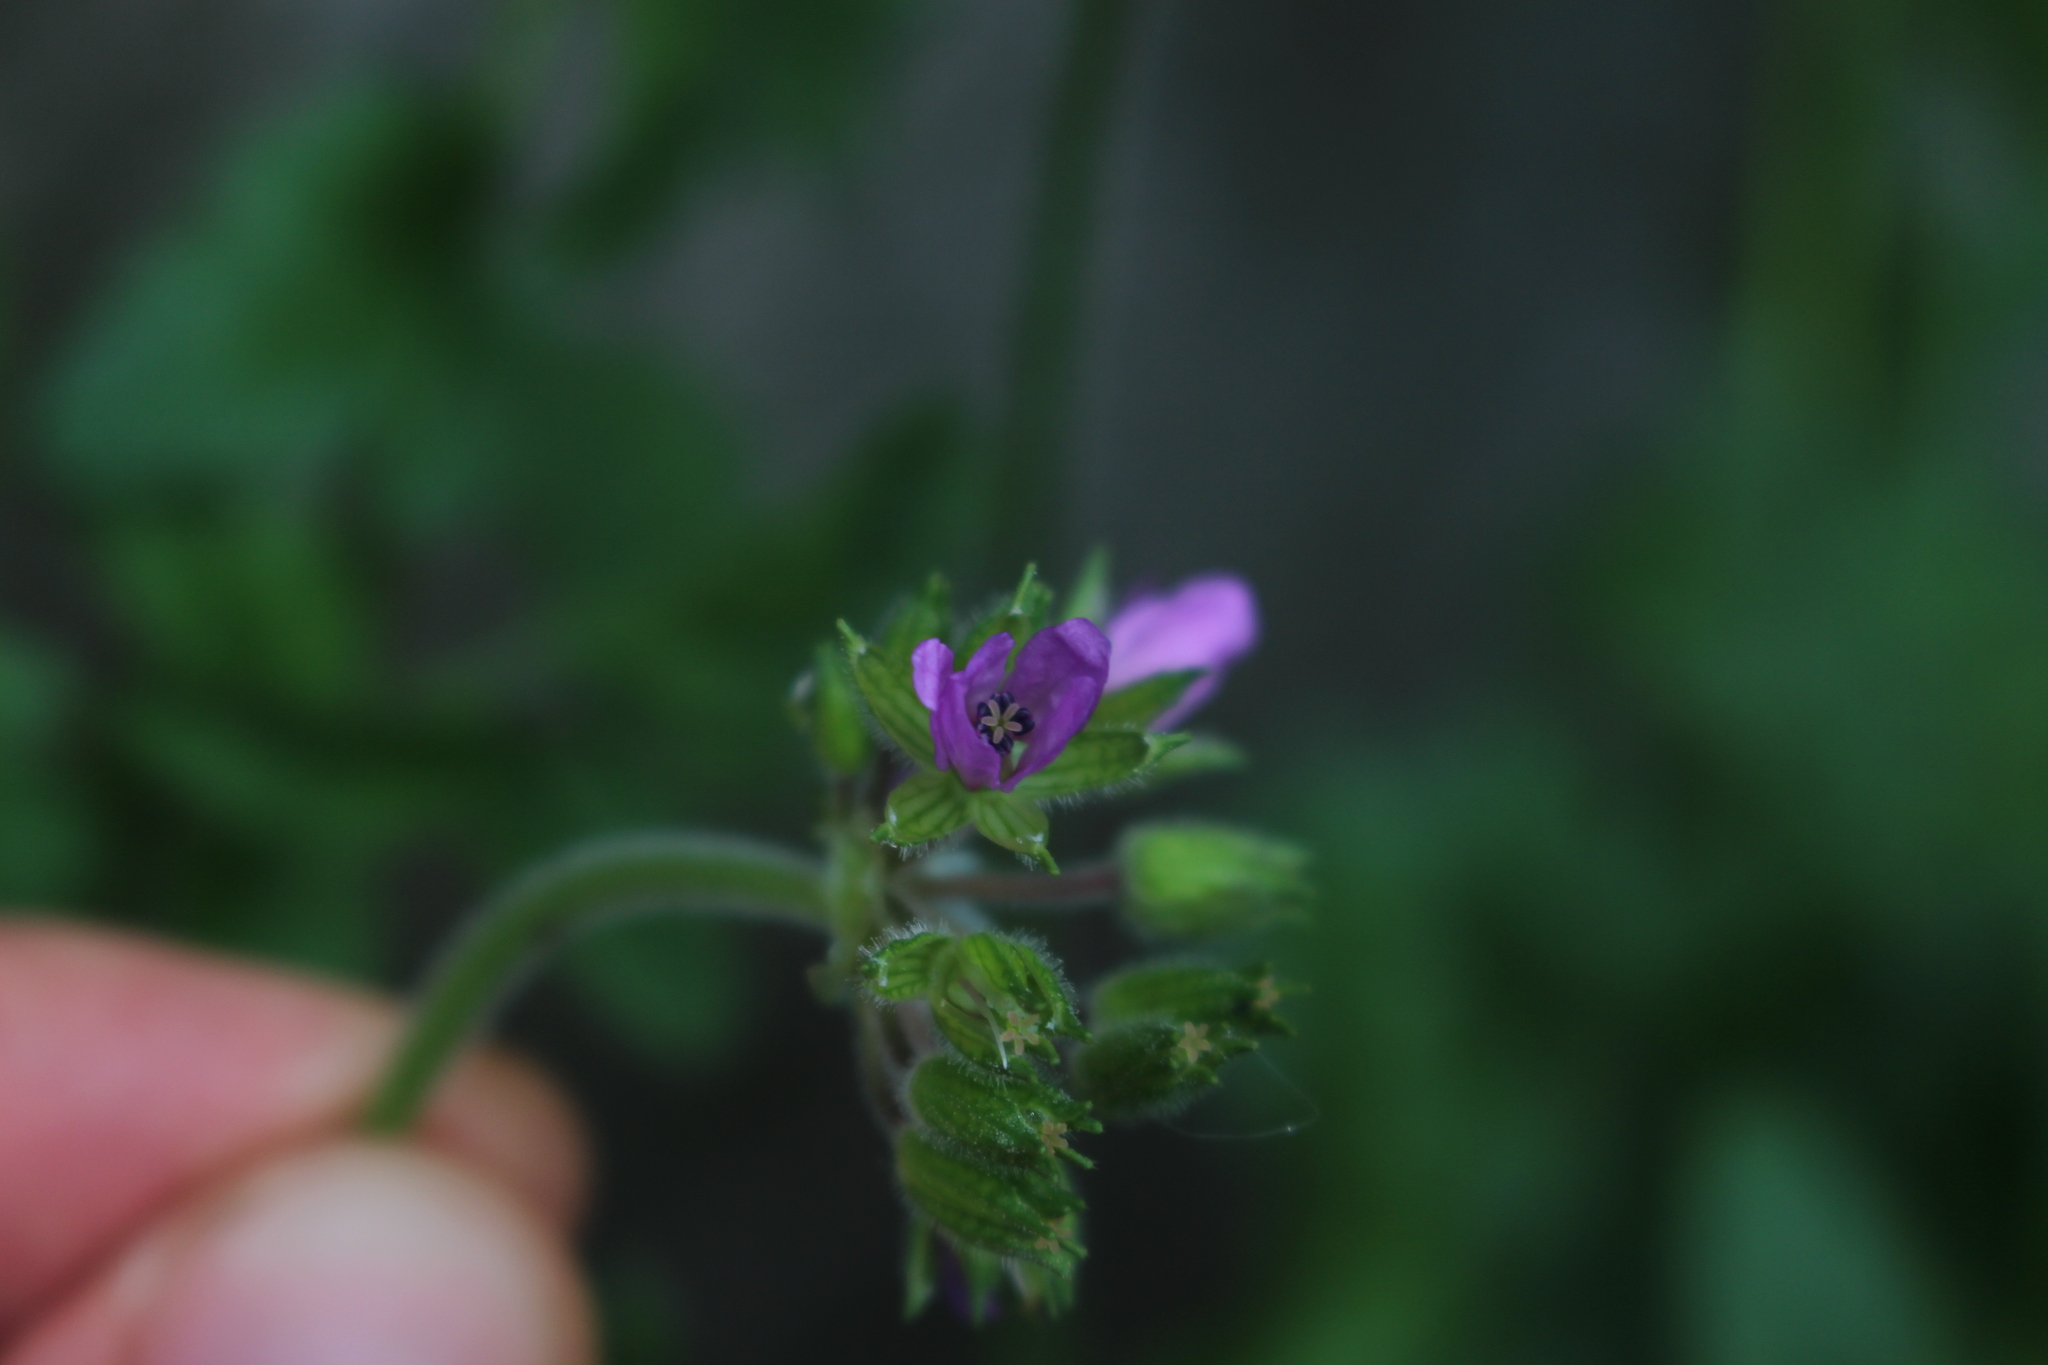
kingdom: Plantae
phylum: Tracheophyta
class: Magnoliopsida
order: Geraniales
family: Geraniaceae
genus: Erodium
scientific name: Erodium moschatum
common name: Musk stork's-bill
